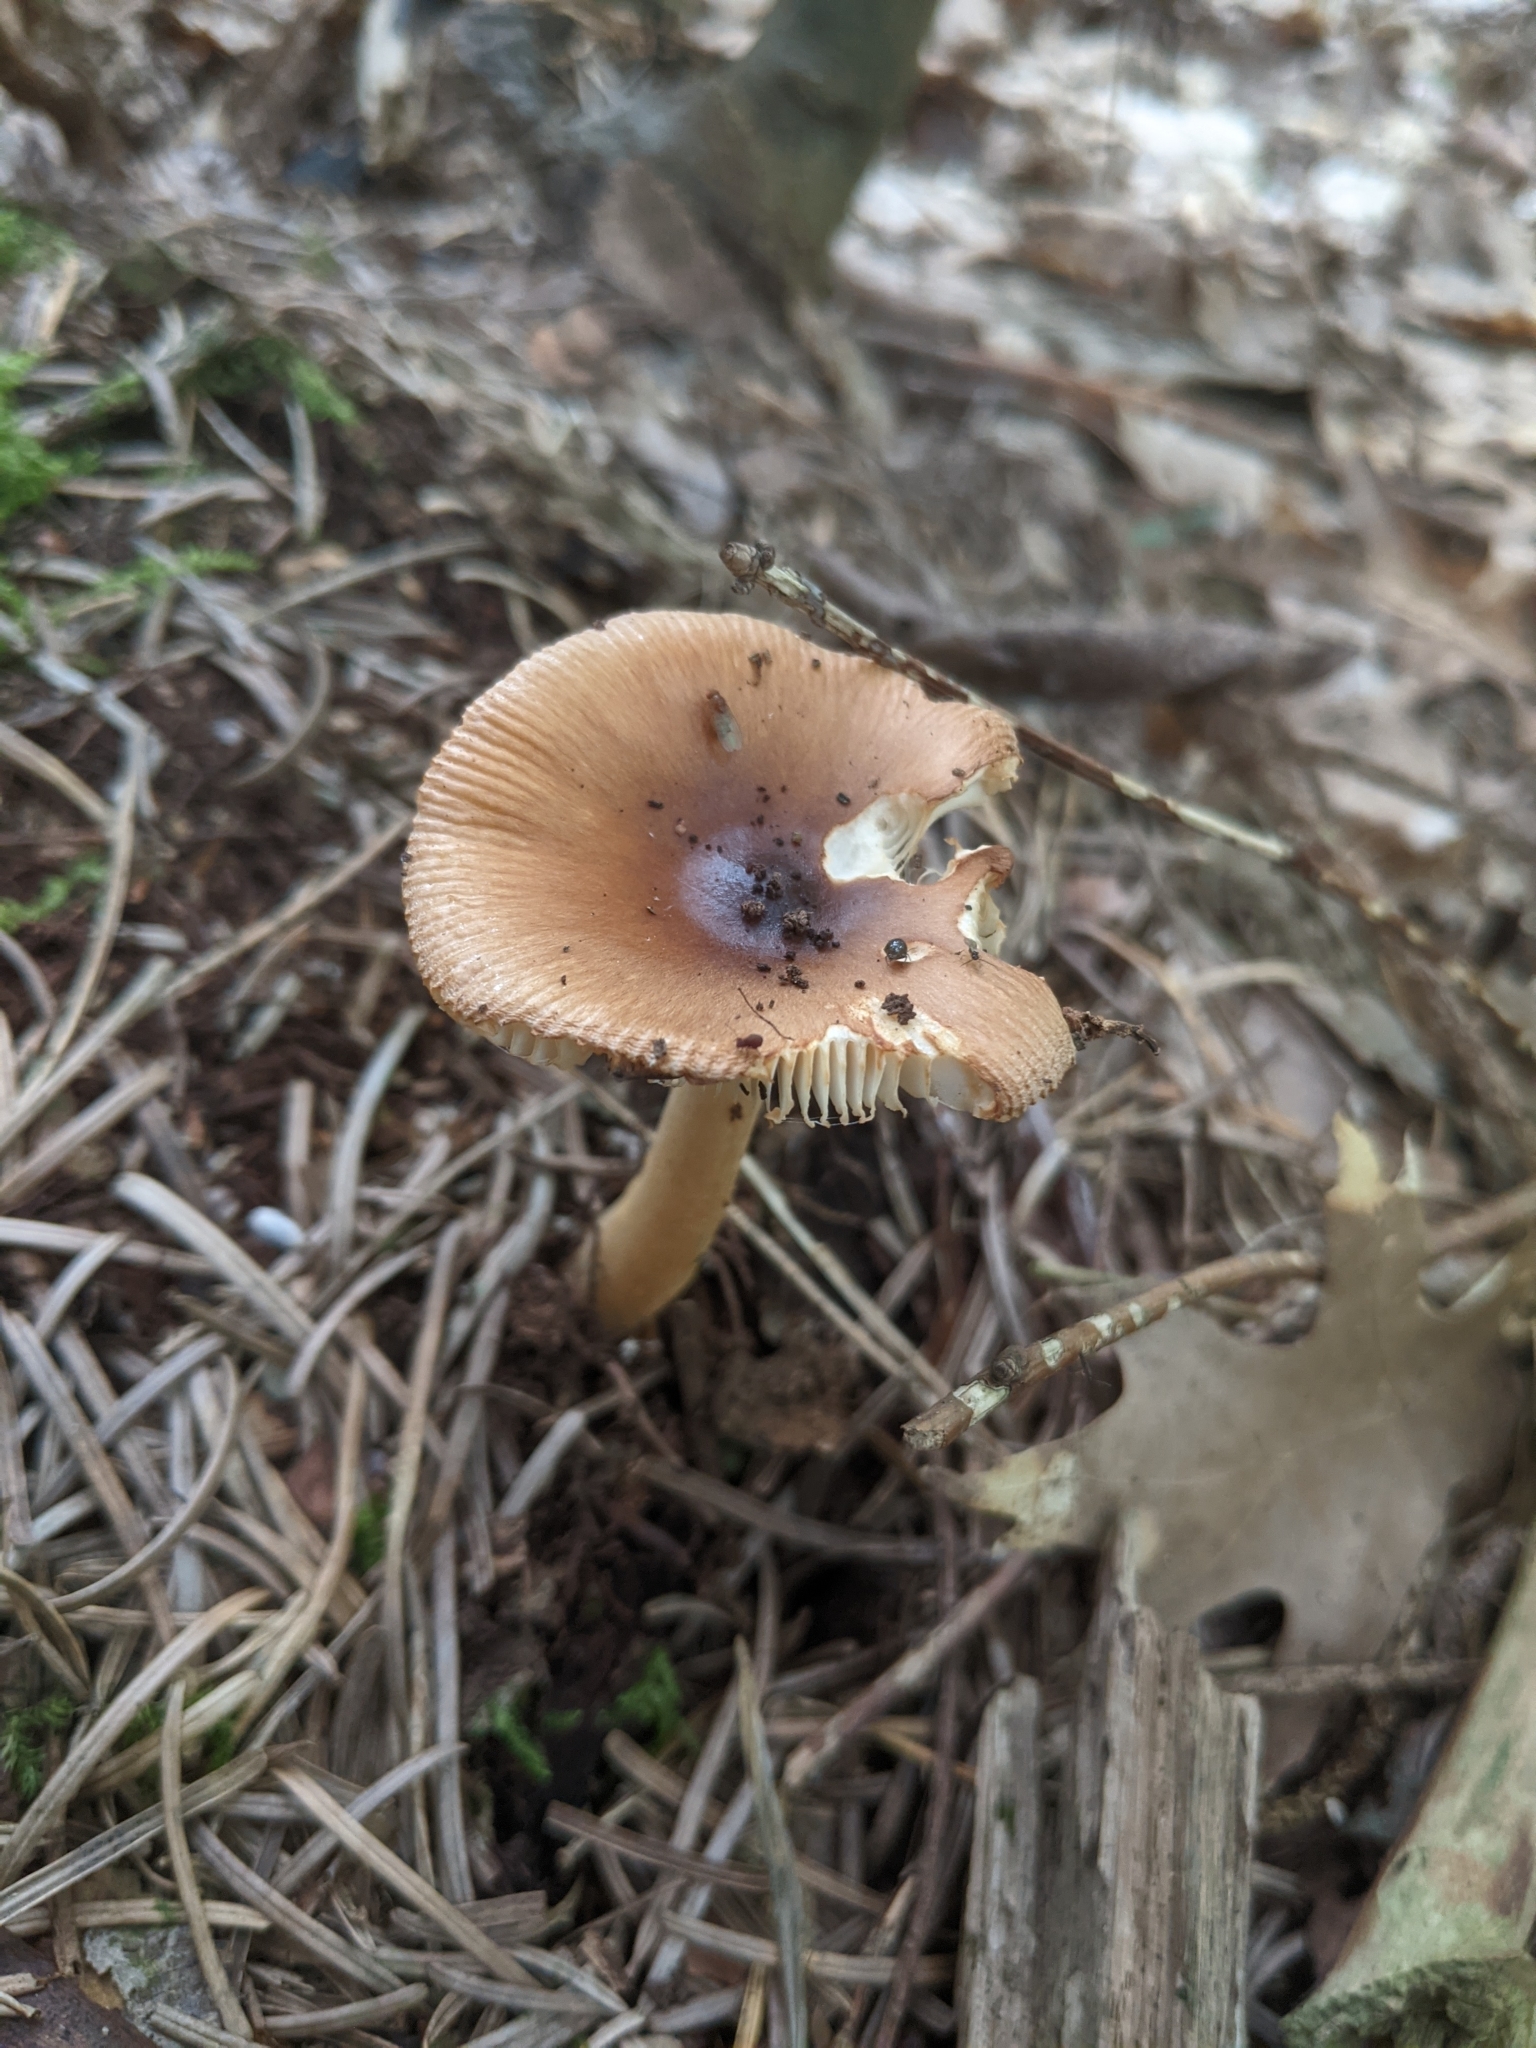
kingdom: Fungi
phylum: Basidiomycota
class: Agaricomycetes
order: Agaricales
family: Amanitaceae
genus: Amanita
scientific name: Amanita fulva
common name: Tawny grisette
